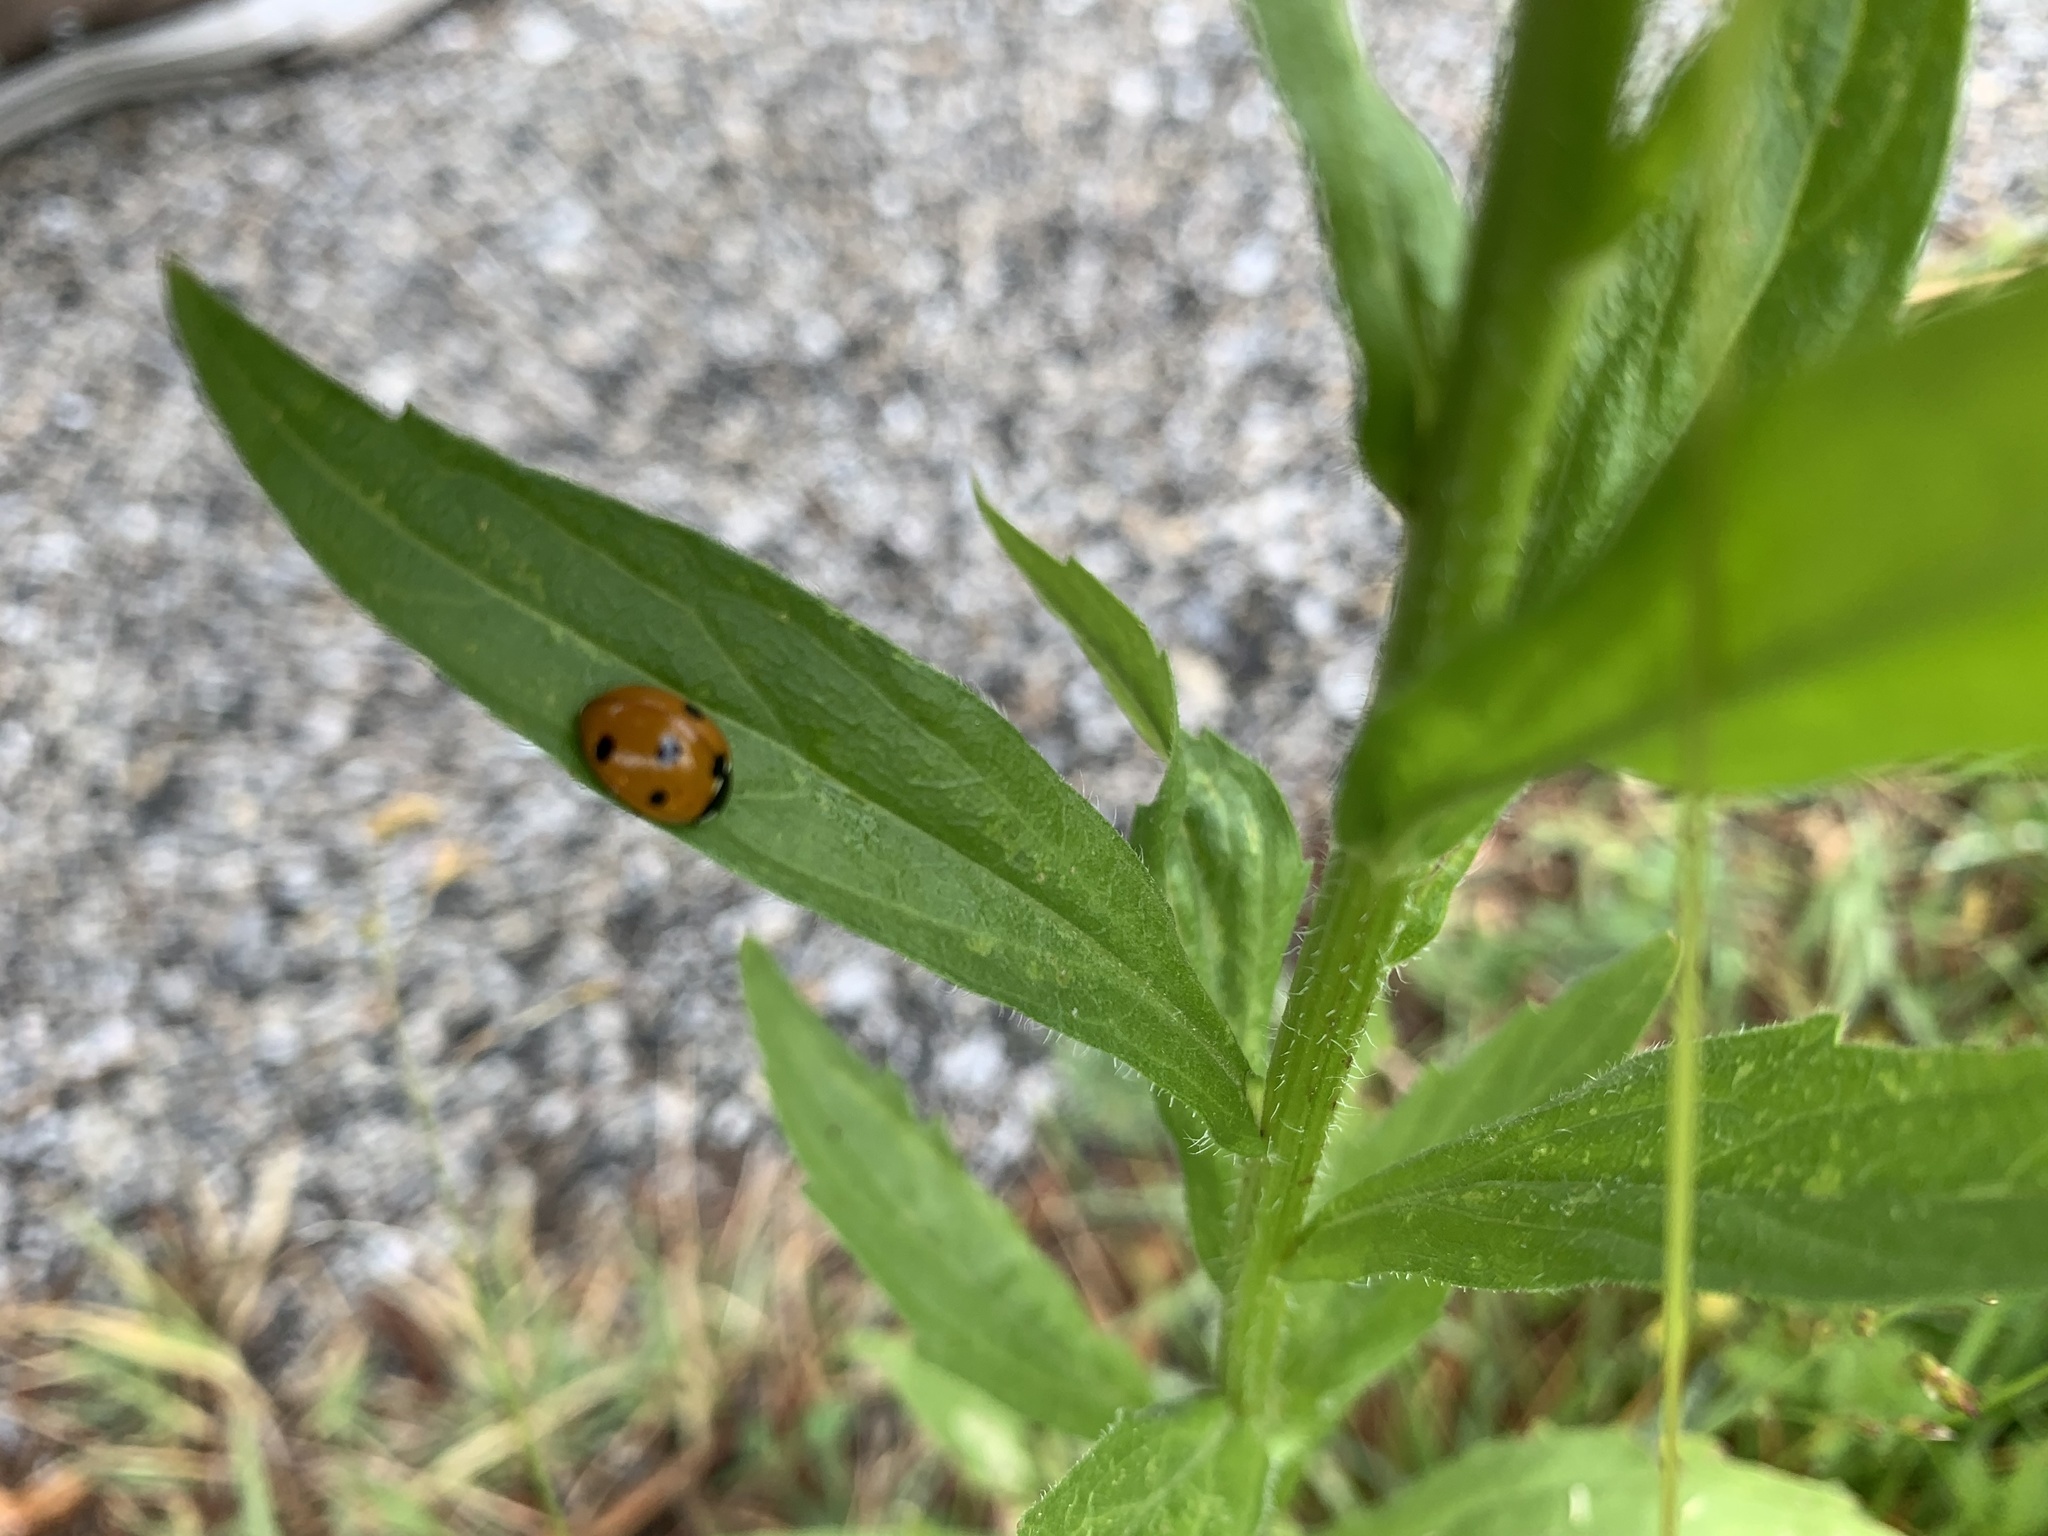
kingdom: Animalia
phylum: Arthropoda
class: Insecta
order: Coleoptera
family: Coccinellidae
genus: Coccinella
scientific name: Coccinella septempunctata
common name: Sevenspotted lady beetle
